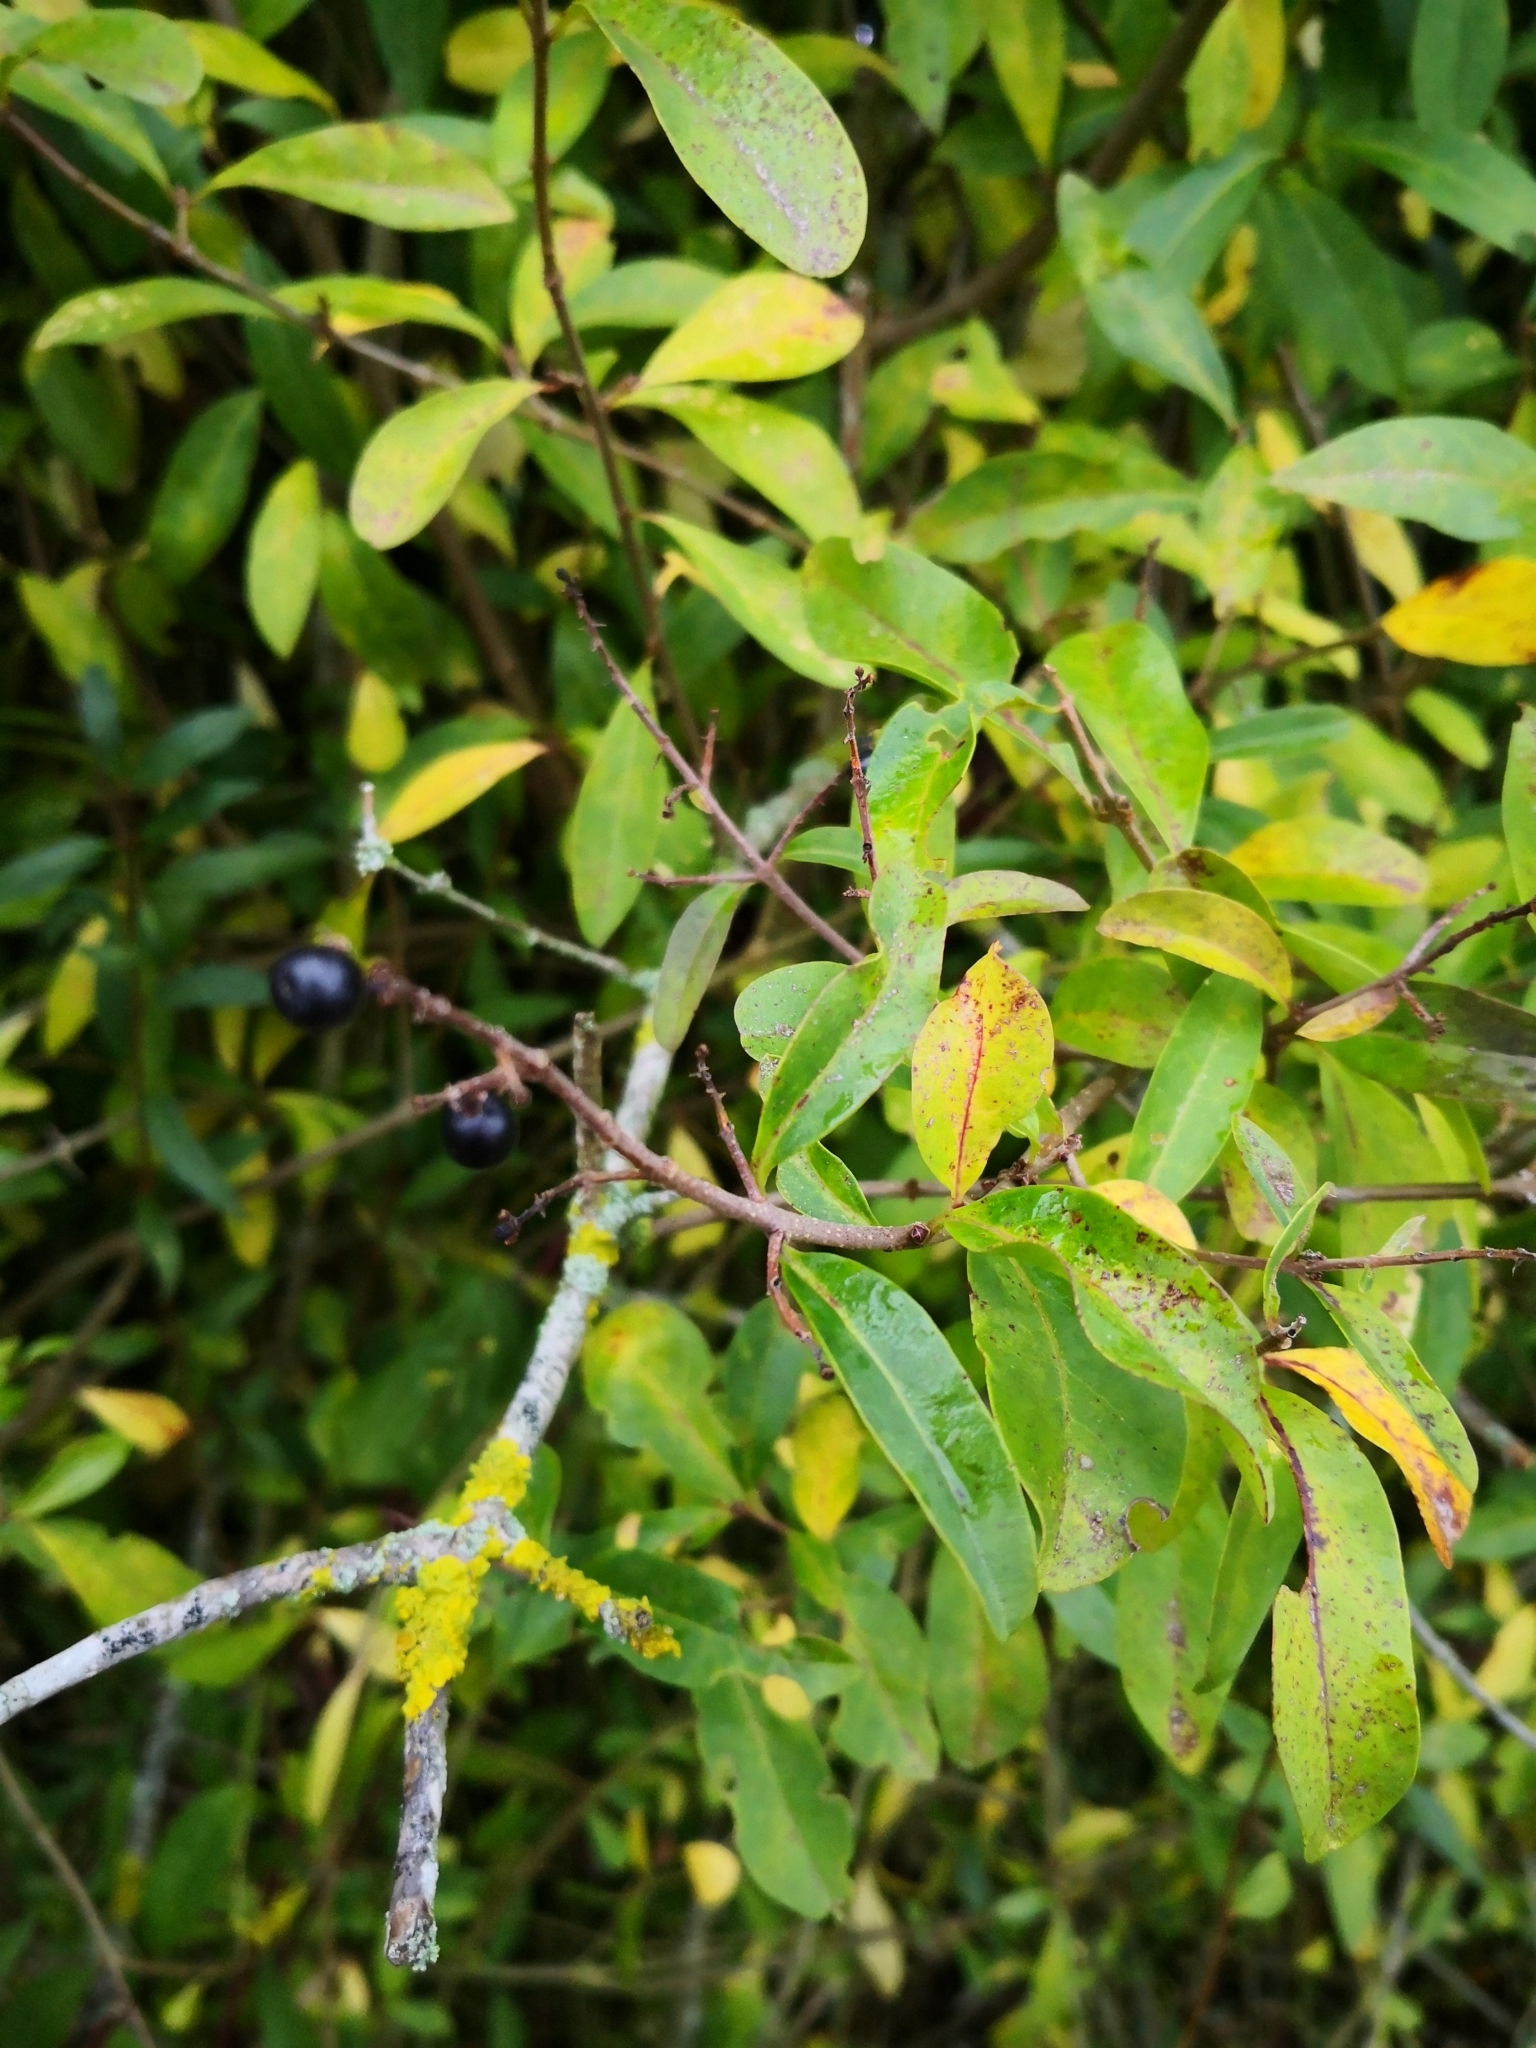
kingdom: Plantae
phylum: Tracheophyta
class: Magnoliopsida
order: Lamiales
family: Oleaceae
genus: Ligustrum
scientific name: Ligustrum vulgare
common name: Wild privet
